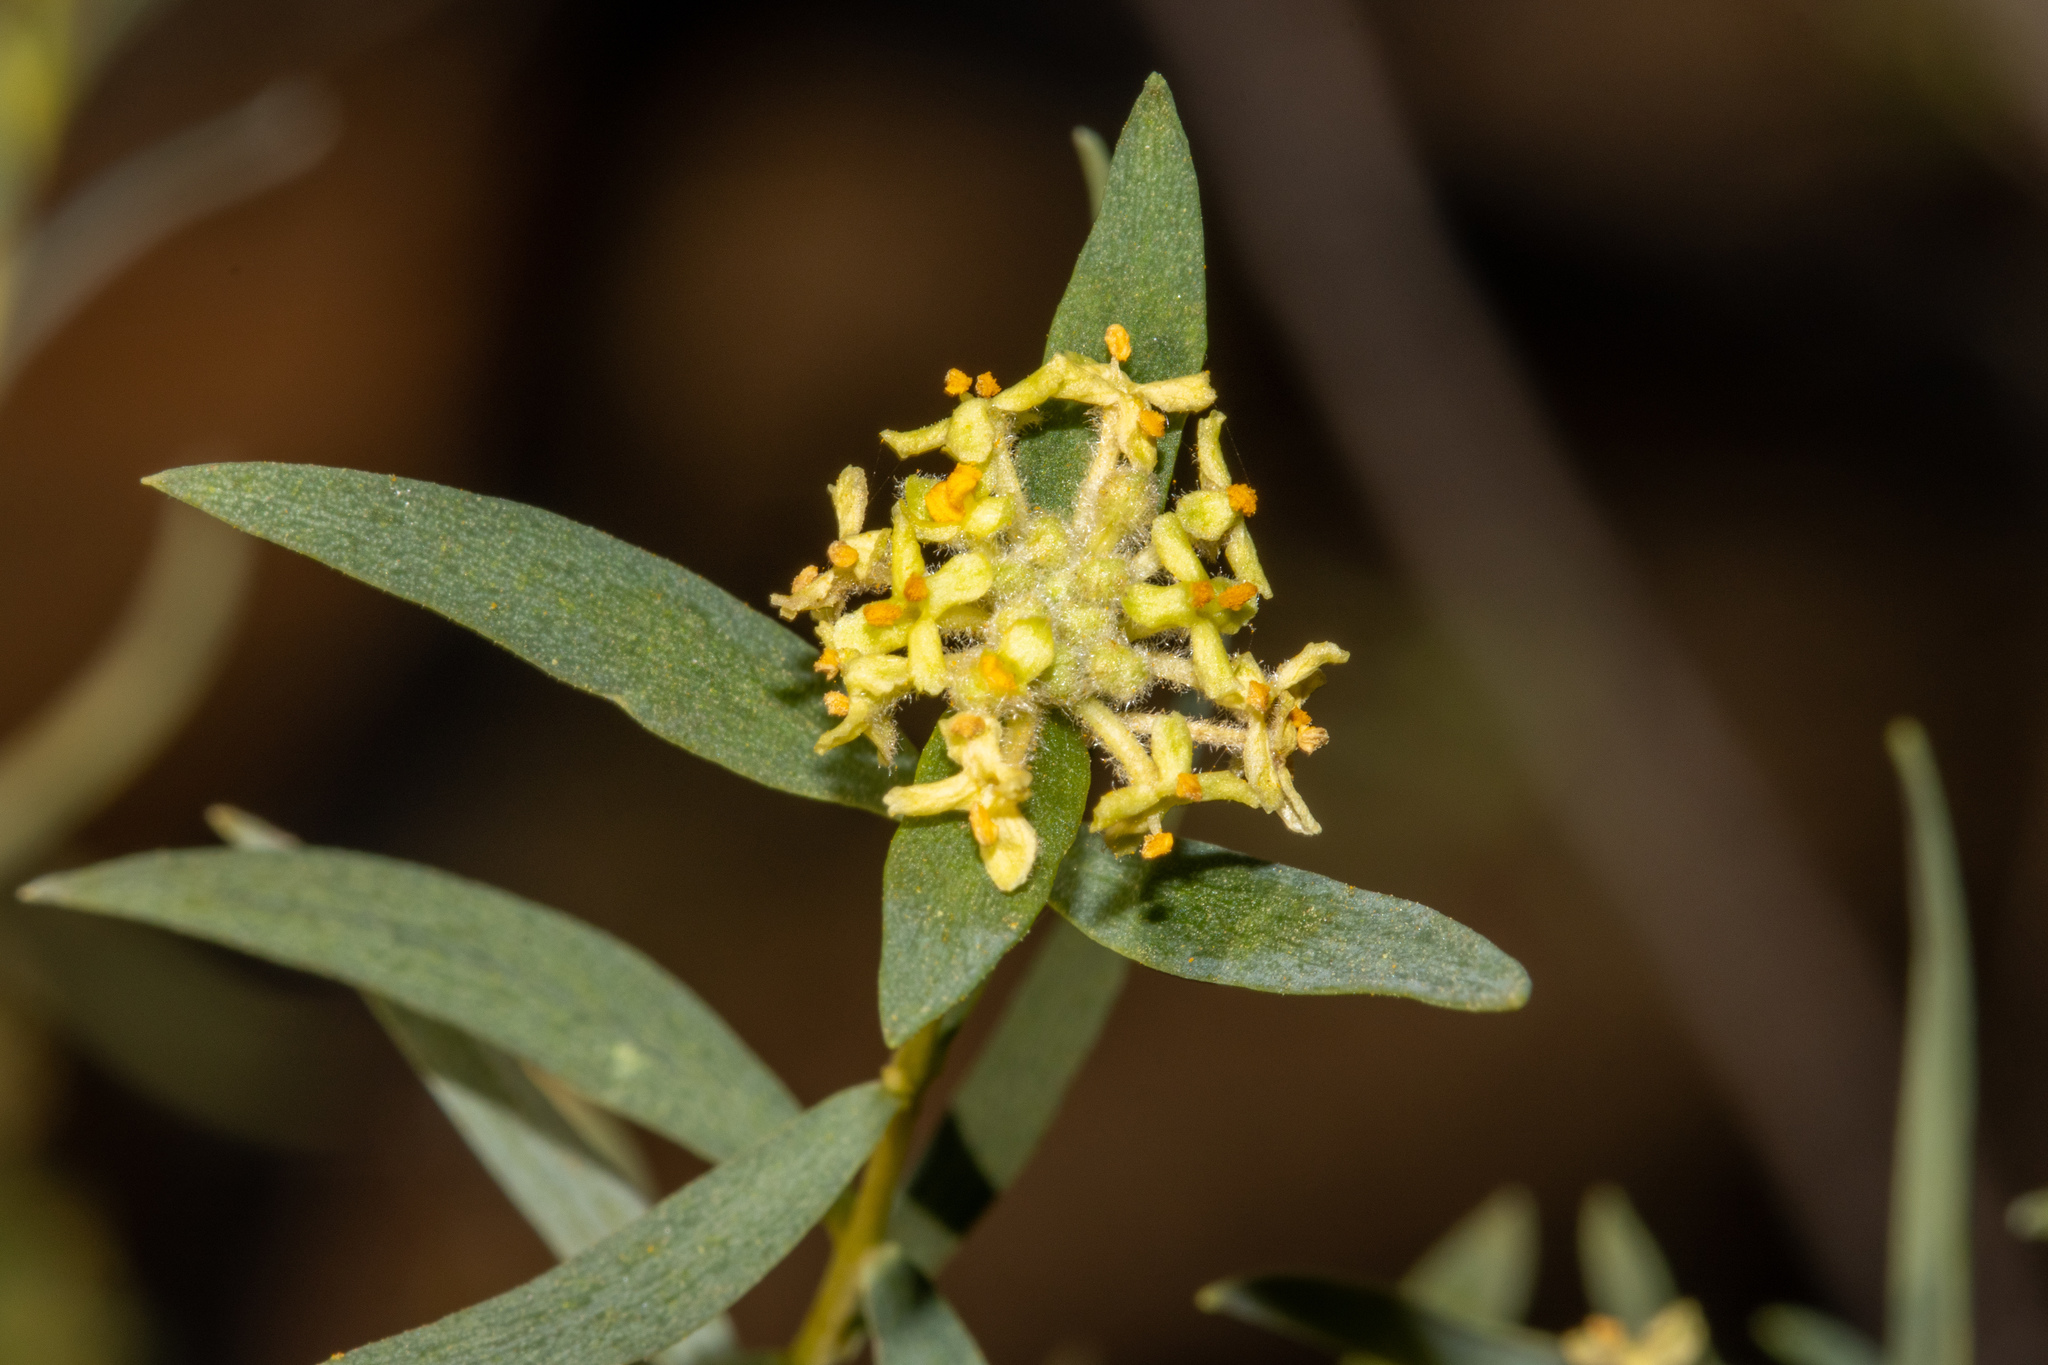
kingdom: Plantae
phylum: Tracheophyta
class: Magnoliopsida
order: Malvales
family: Thymelaeaceae
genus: Pimelea
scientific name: Pimelea microcephala
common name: Mallee riceflower
